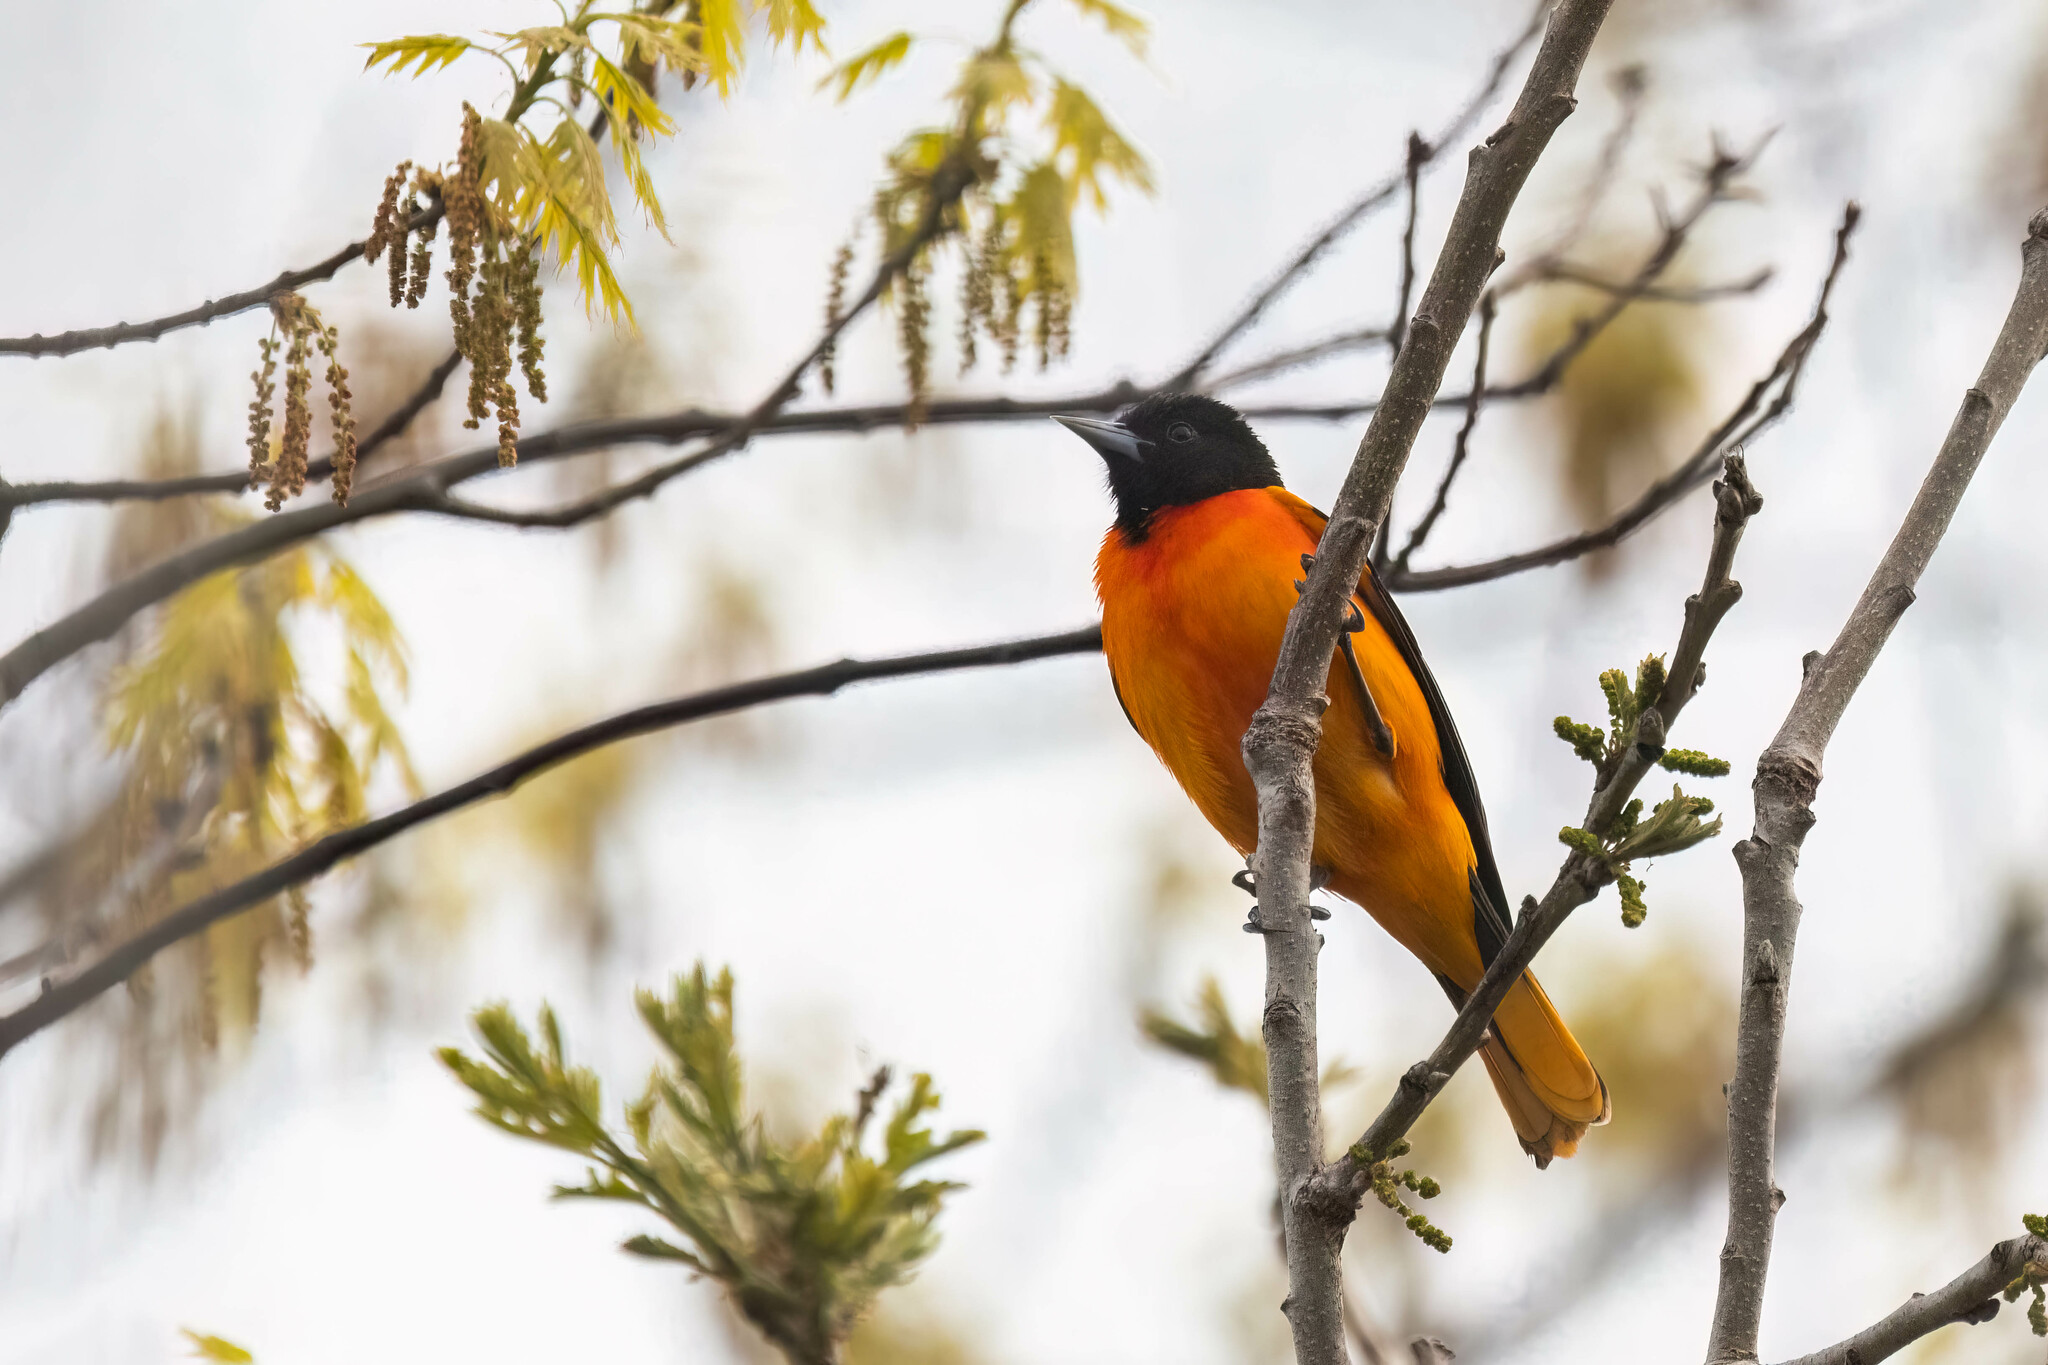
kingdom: Animalia
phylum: Chordata
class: Aves
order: Passeriformes
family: Icteridae
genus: Icterus
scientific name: Icterus galbula
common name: Baltimore oriole
